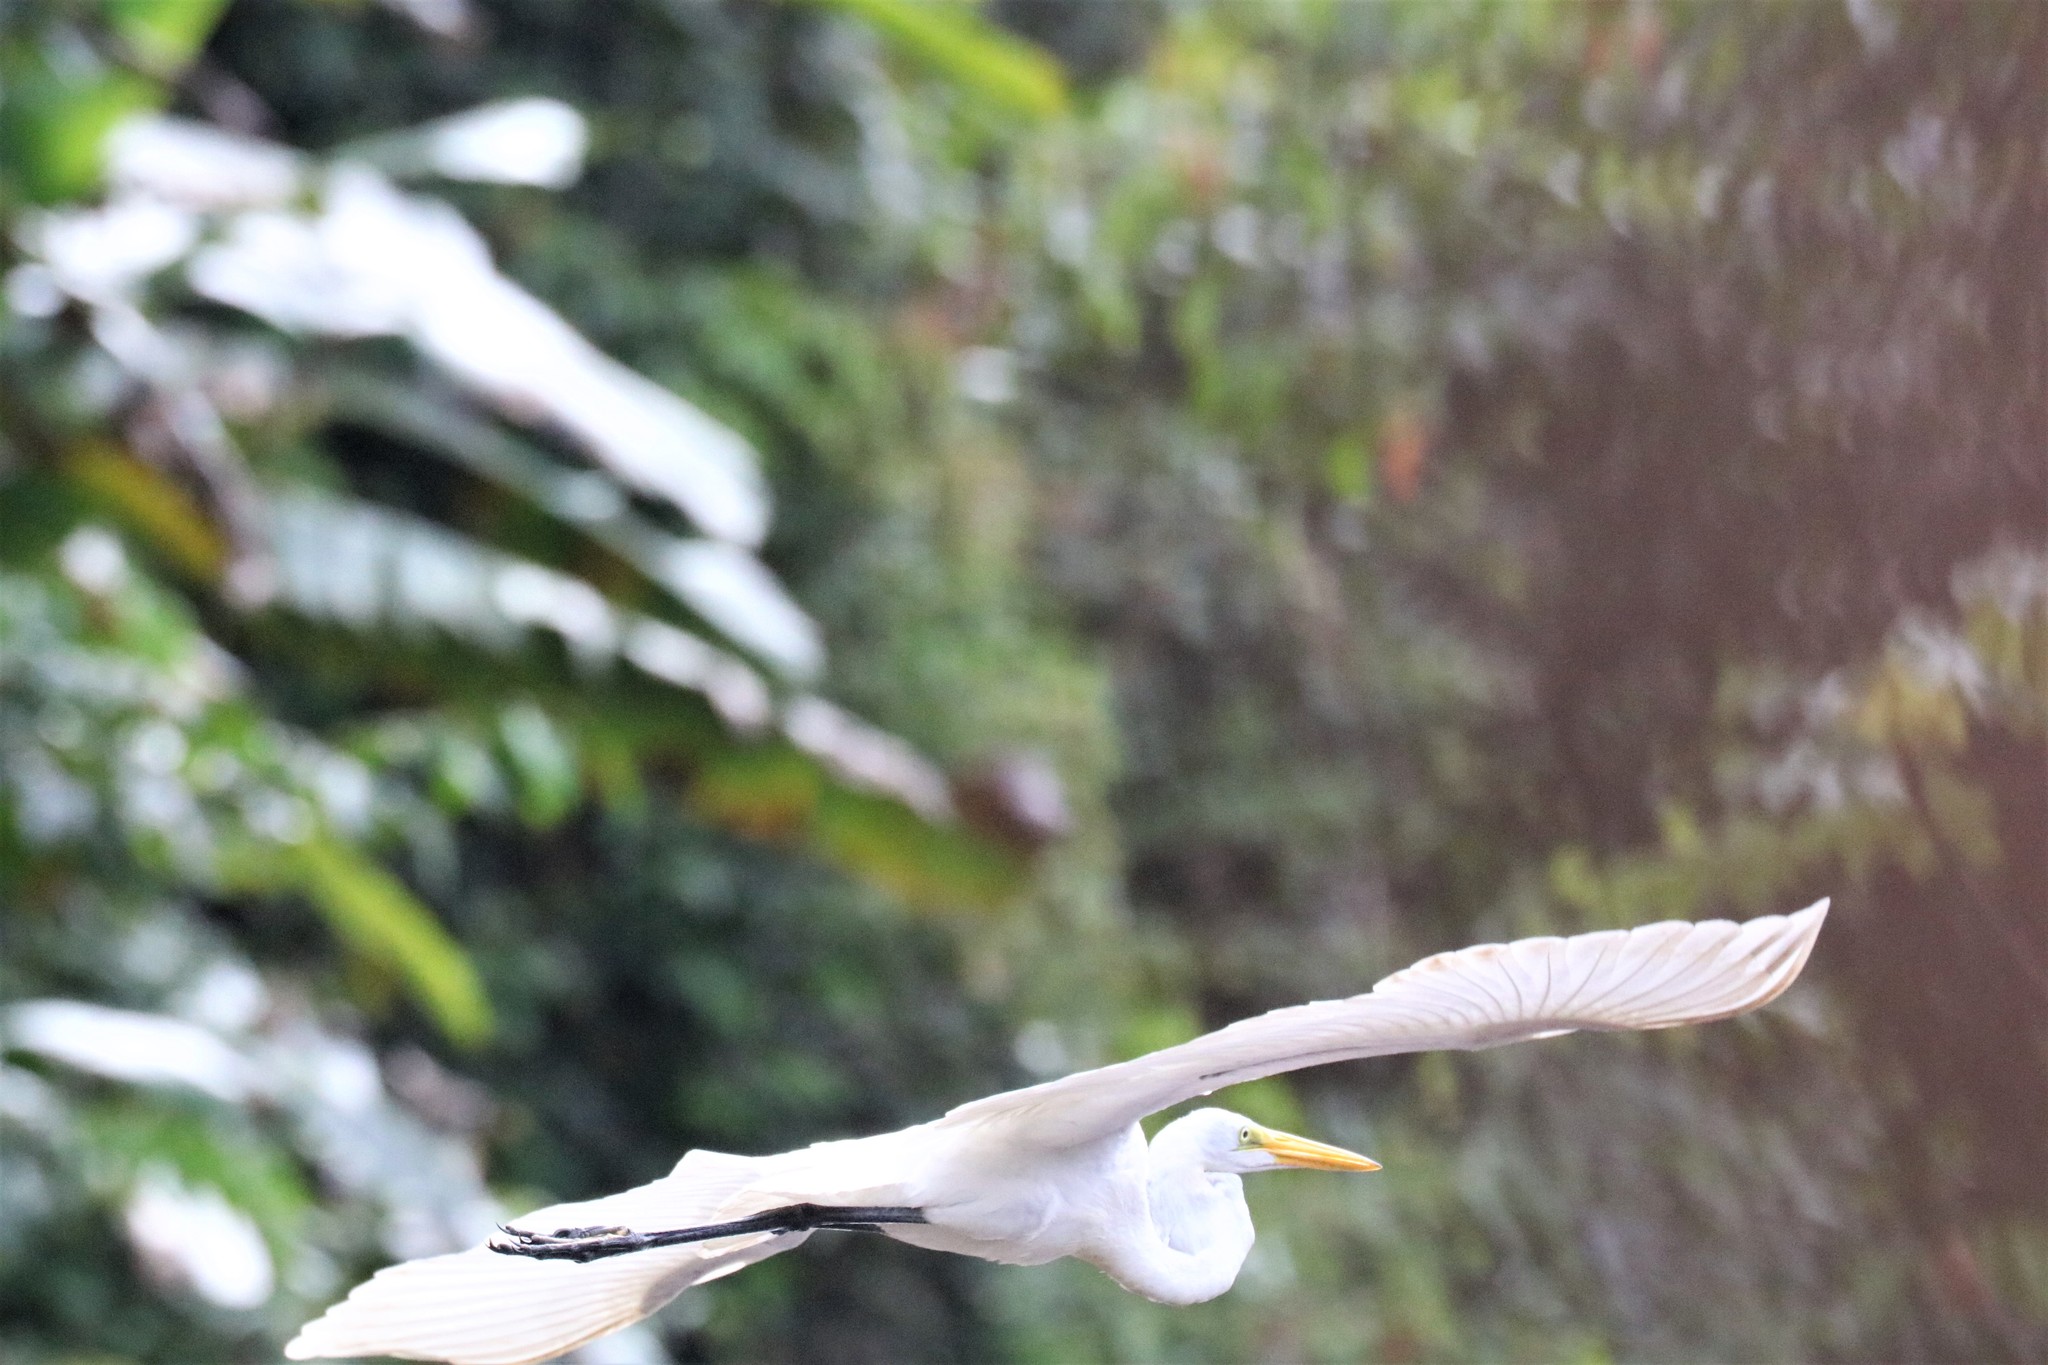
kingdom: Animalia
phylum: Chordata
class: Aves
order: Pelecaniformes
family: Ardeidae
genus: Ardea
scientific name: Ardea alba
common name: Great egret
